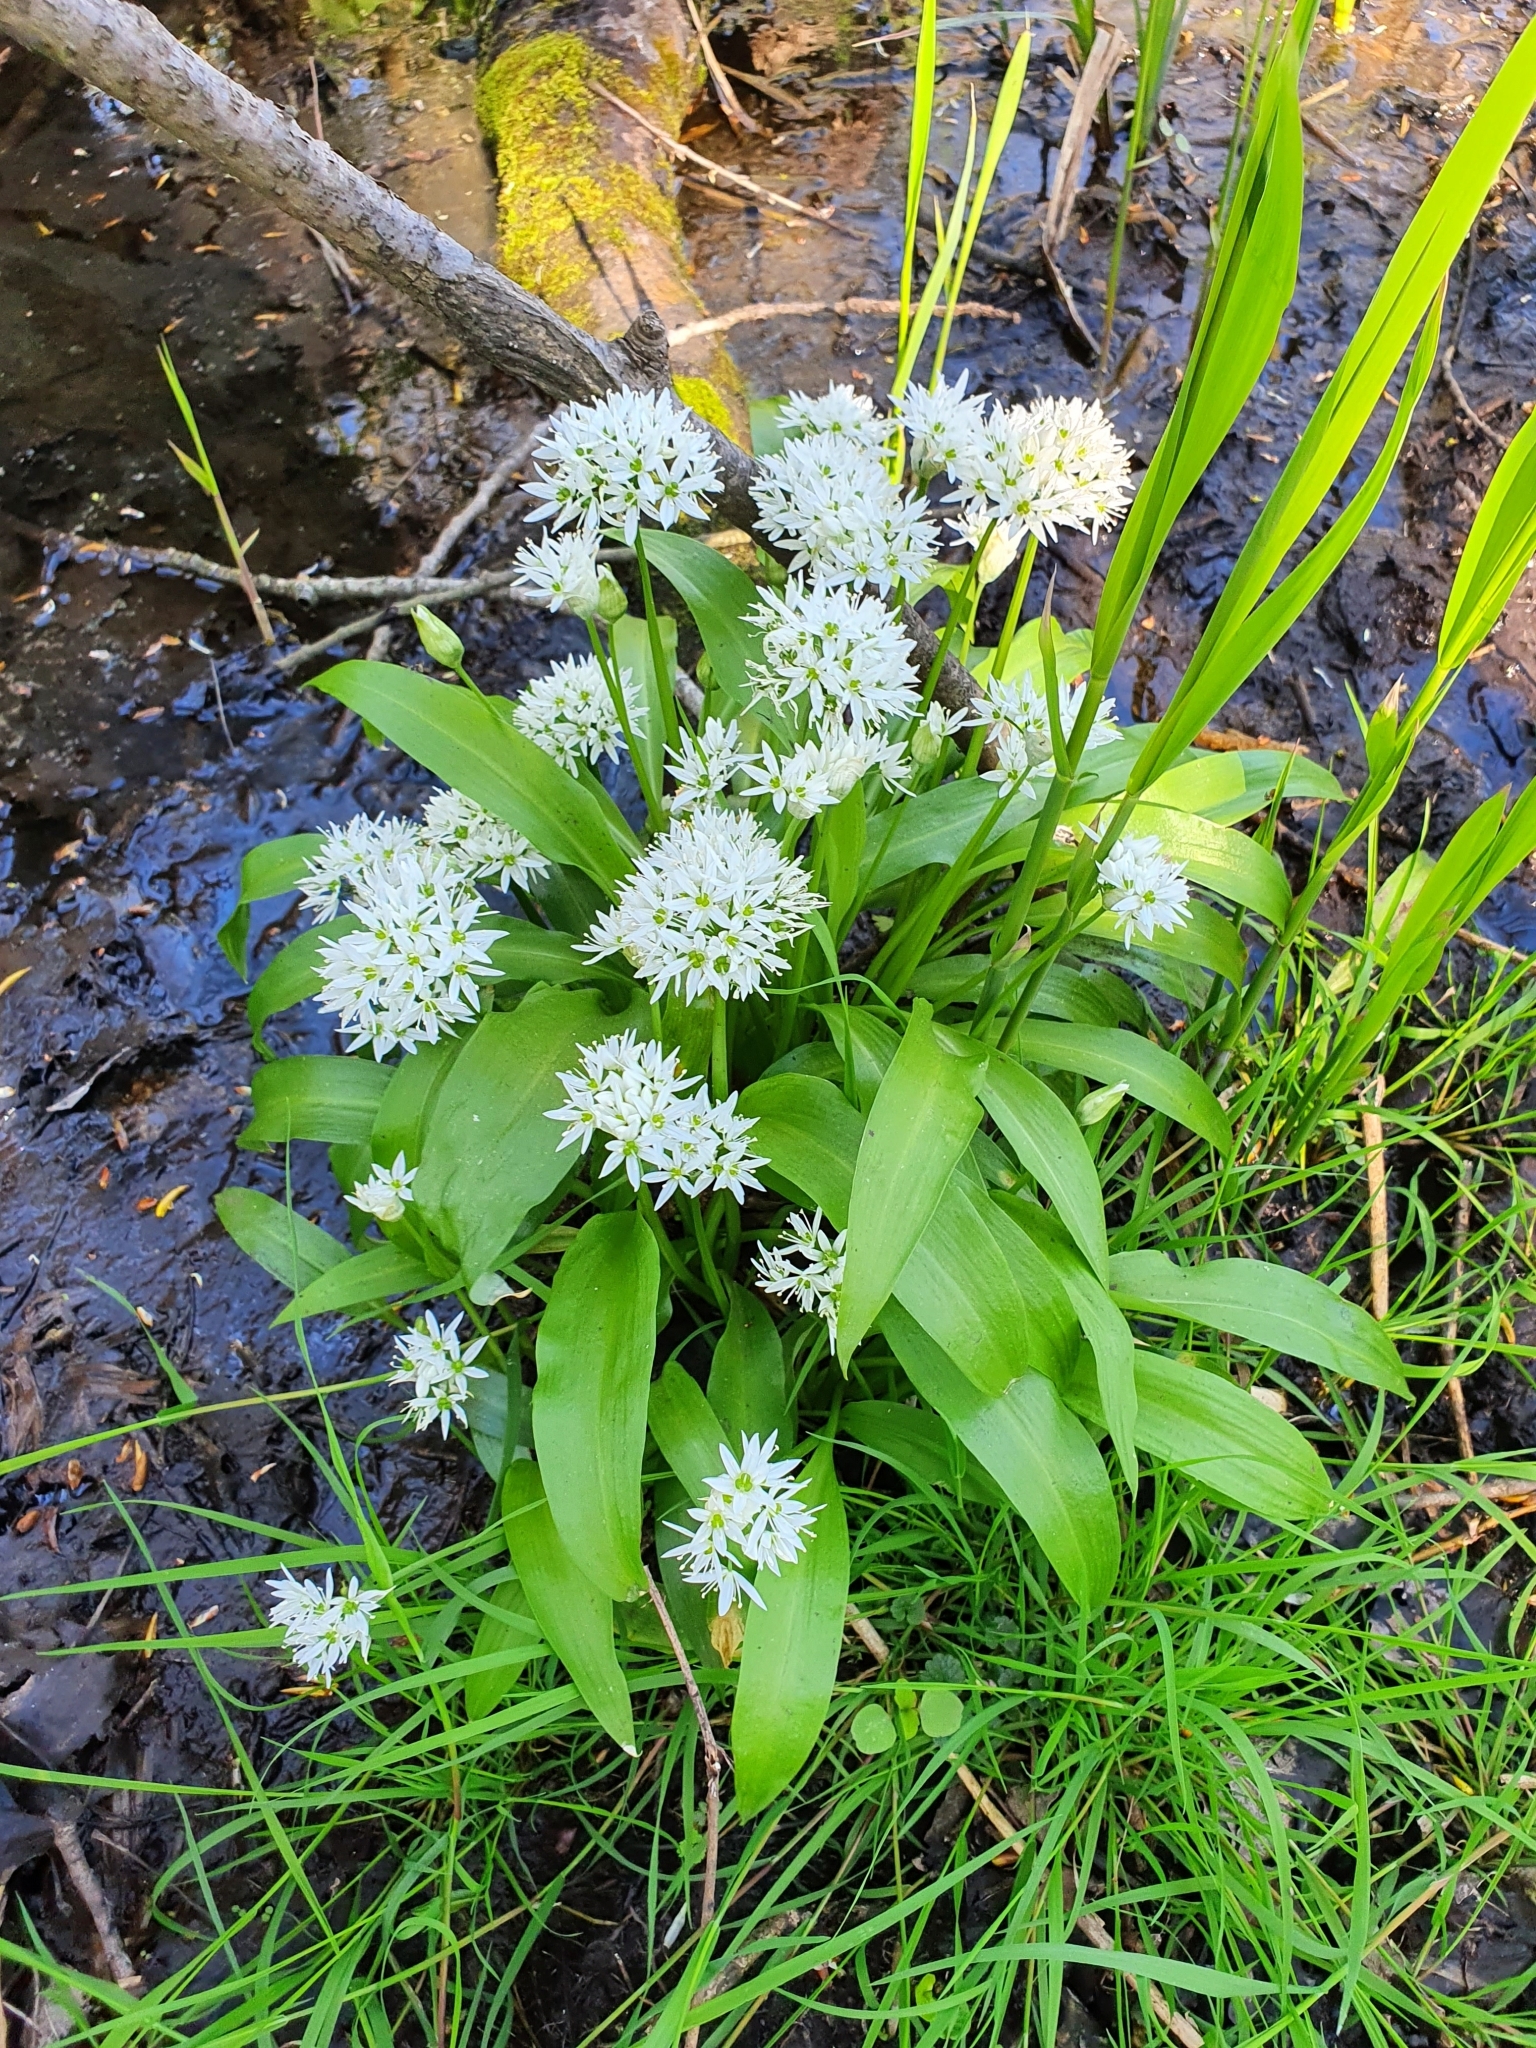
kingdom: Plantae
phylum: Tracheophyta
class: Liliopsida
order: Asparagales
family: Amaryllidaceae
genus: Allium
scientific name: Allium ursinum
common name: Ramsons
